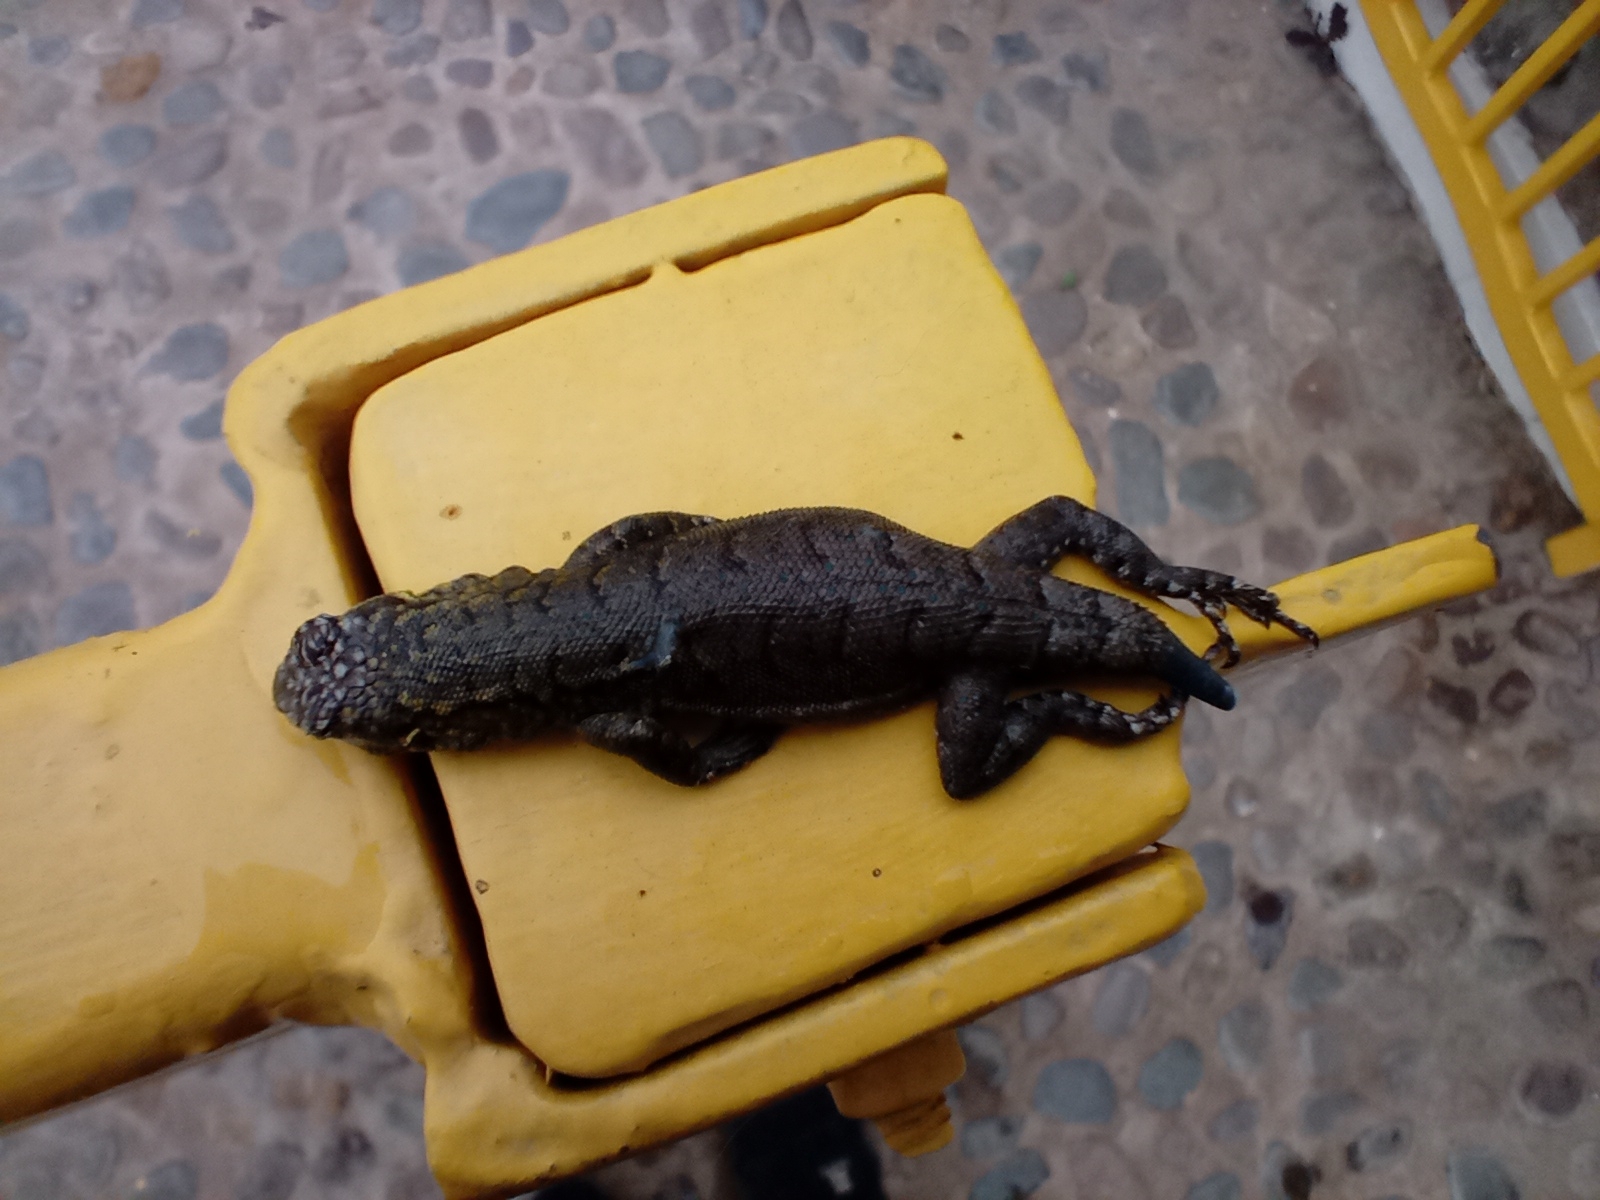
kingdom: Animalia
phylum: Chordata
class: Squamata
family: Liolaemidae
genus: Liolaemus
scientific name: Liolaemus tenuis
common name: Thin tree iguana
